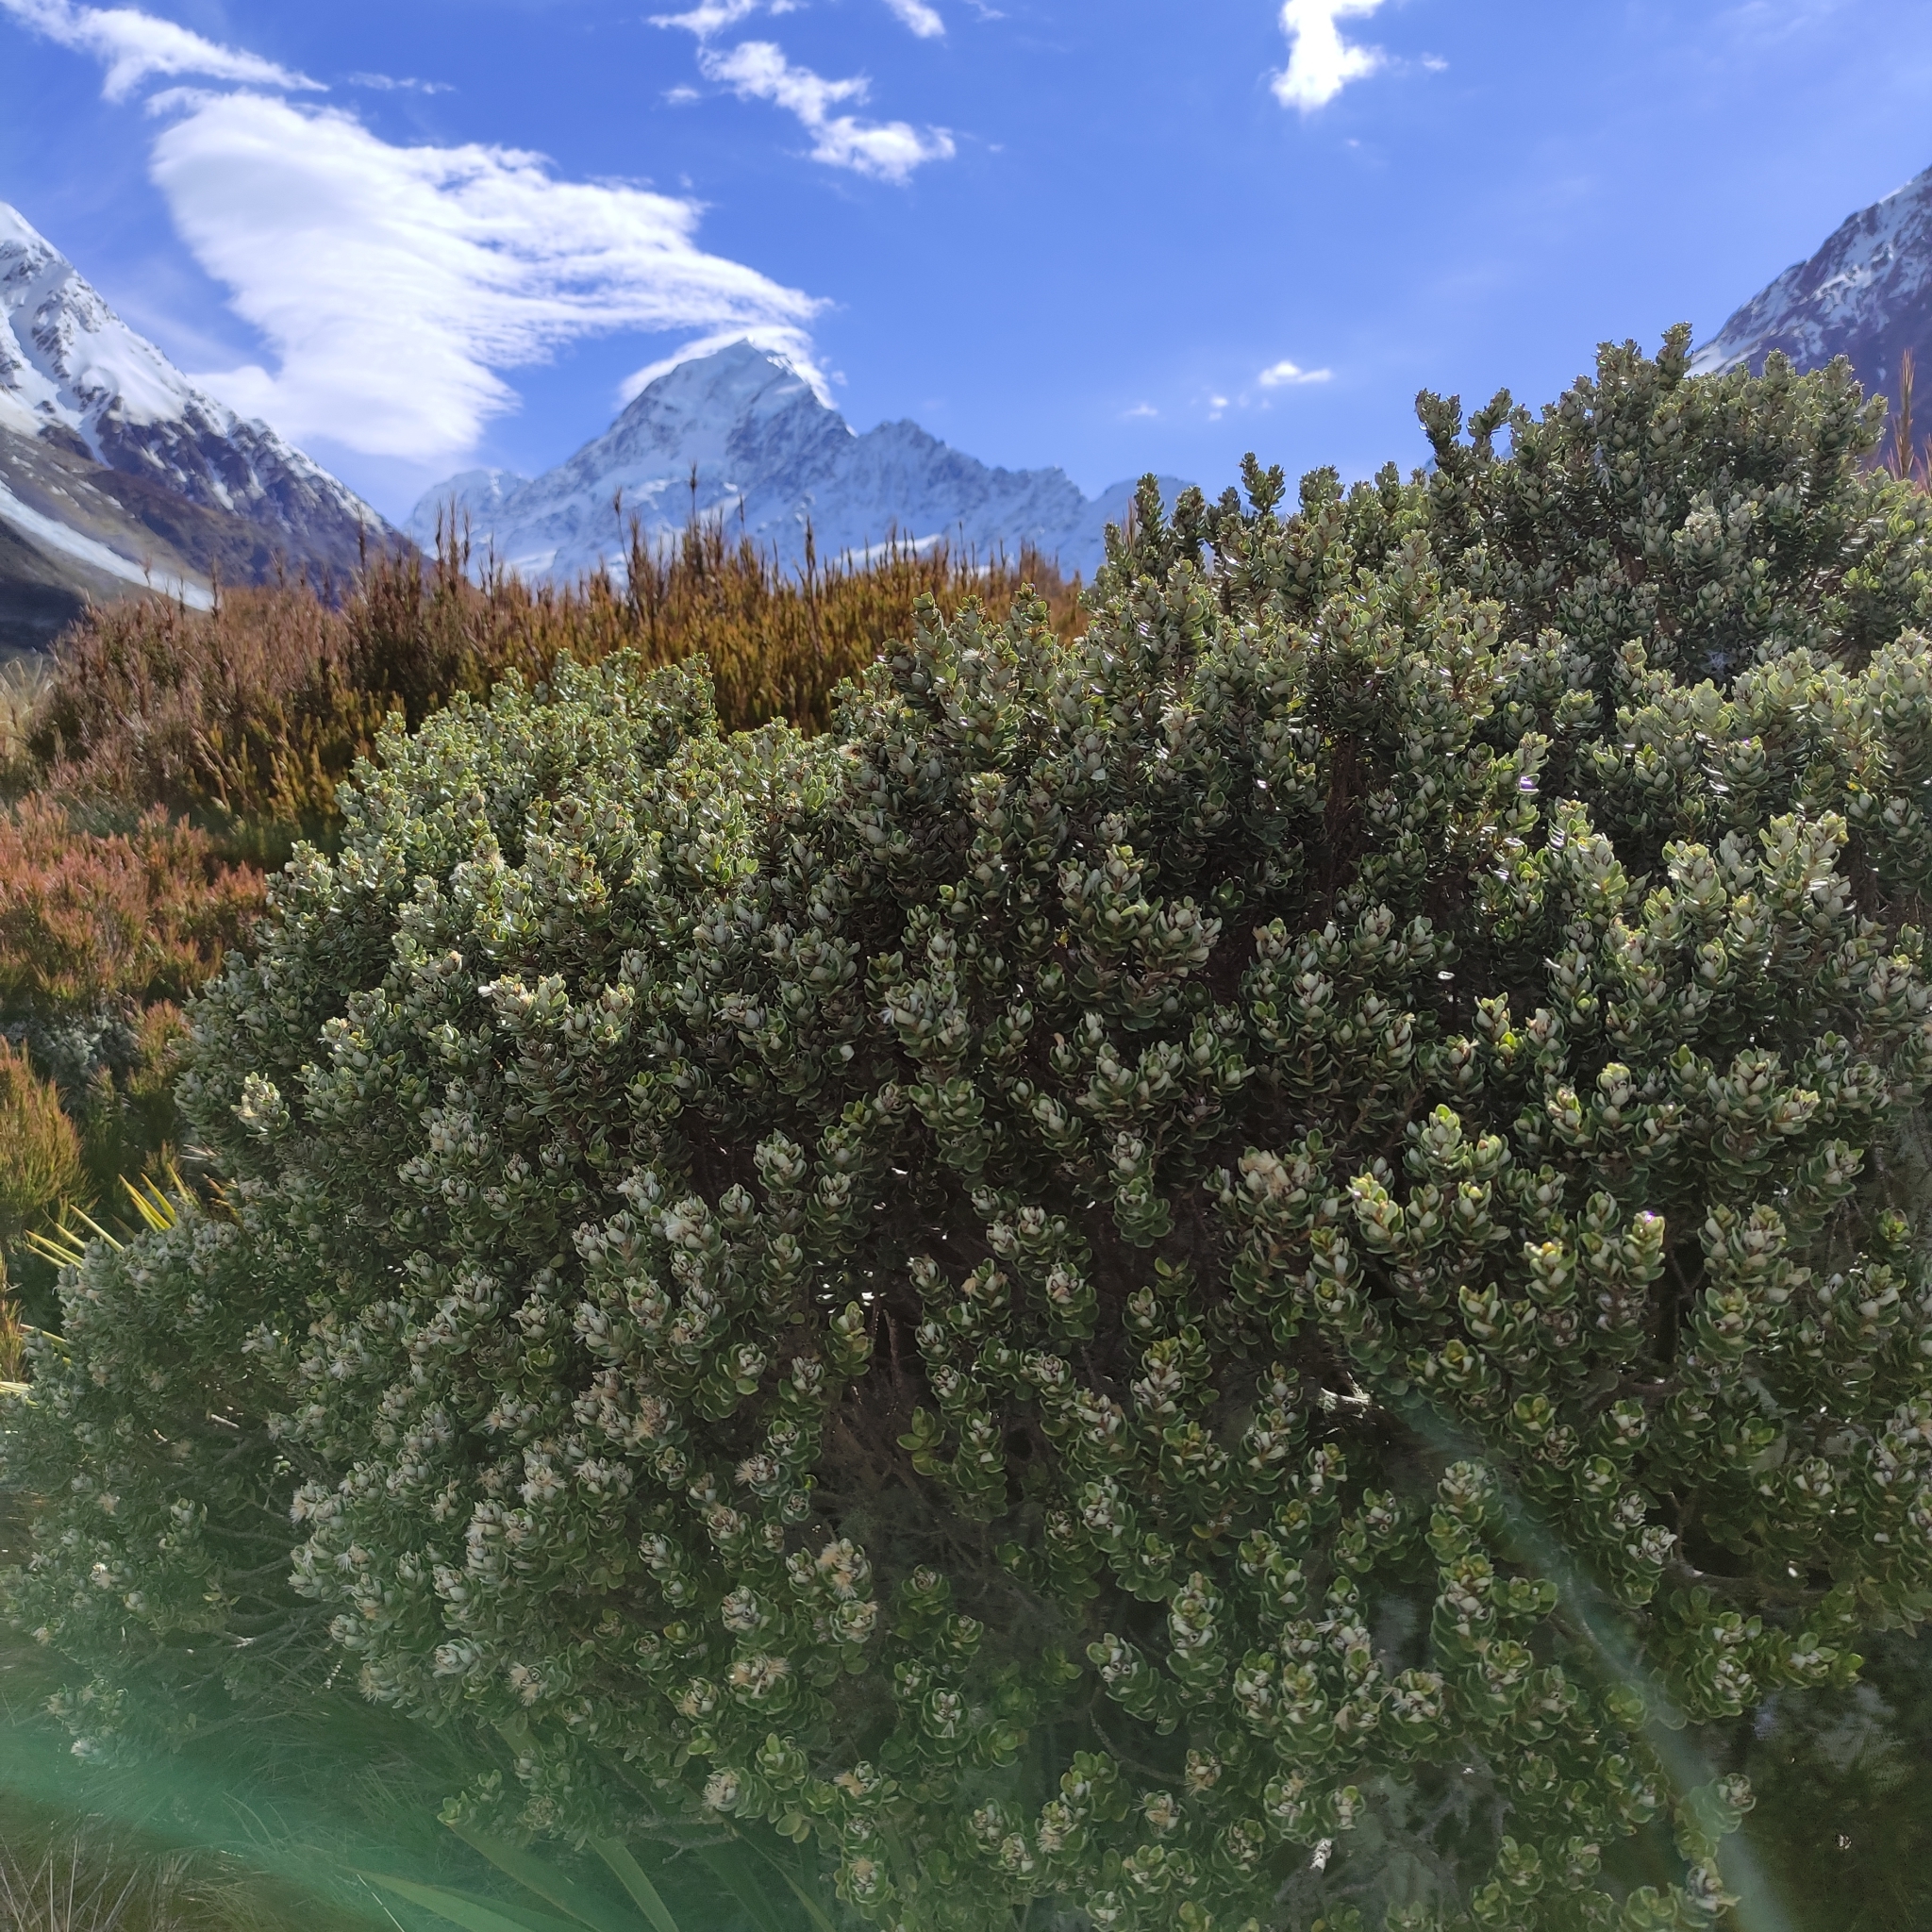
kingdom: Plantae
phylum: Tracheophyta
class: Magnoliopsida
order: Asterales
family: Asteraceae
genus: Olearia
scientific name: Olearia nummularifolia
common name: Sticky daisybush
